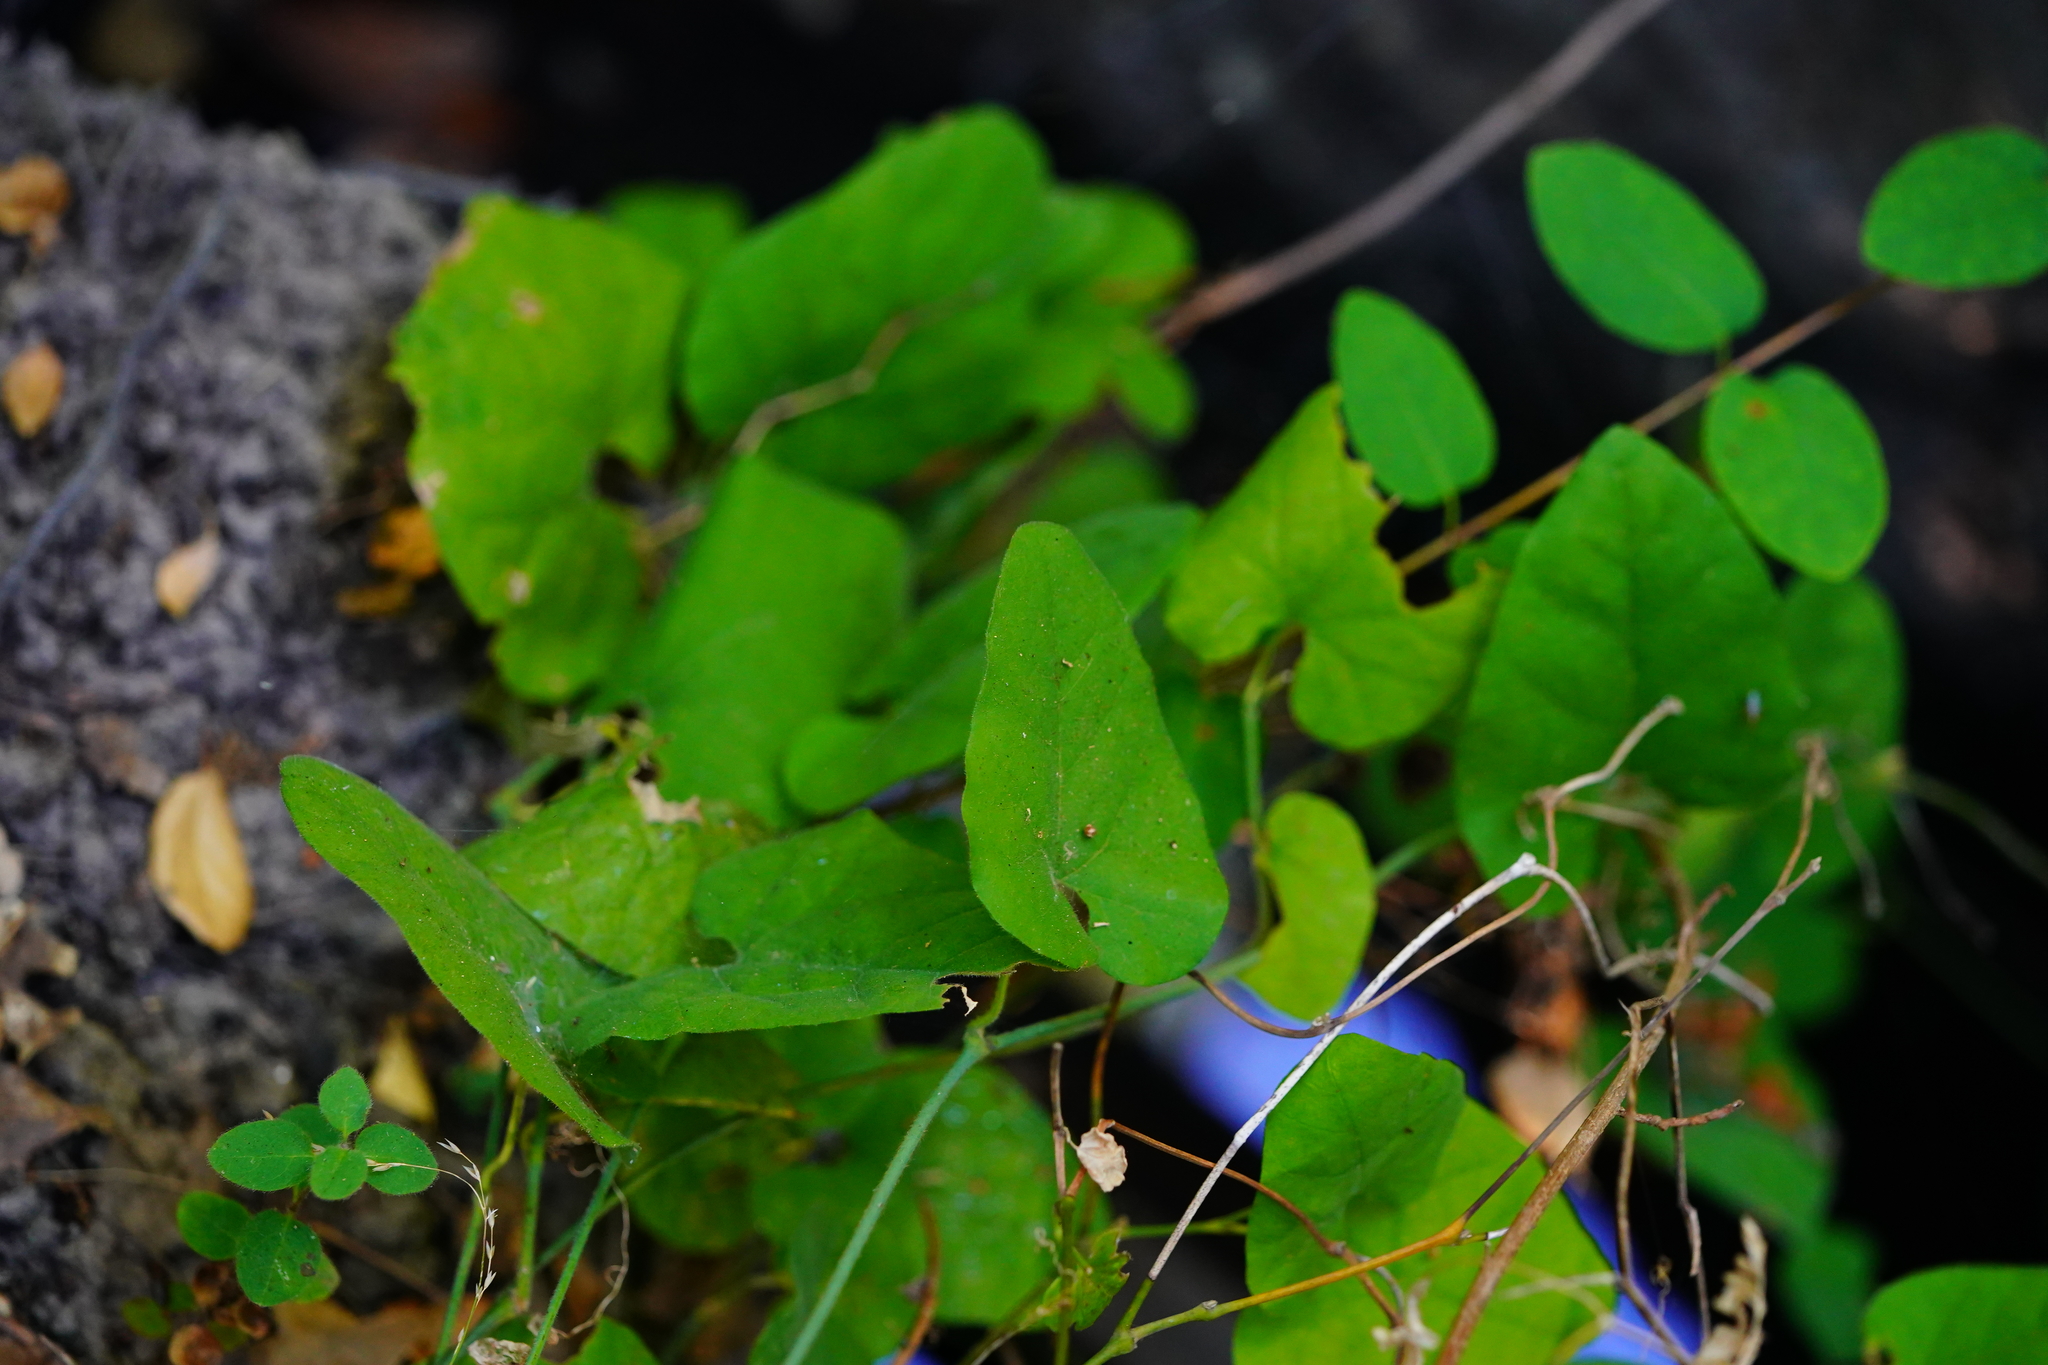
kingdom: Plantae
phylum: Tracheophyta
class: Magnoliopsida
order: Piperales
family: Aristolochiaceae
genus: Isotrema
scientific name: Isotrema californicum
